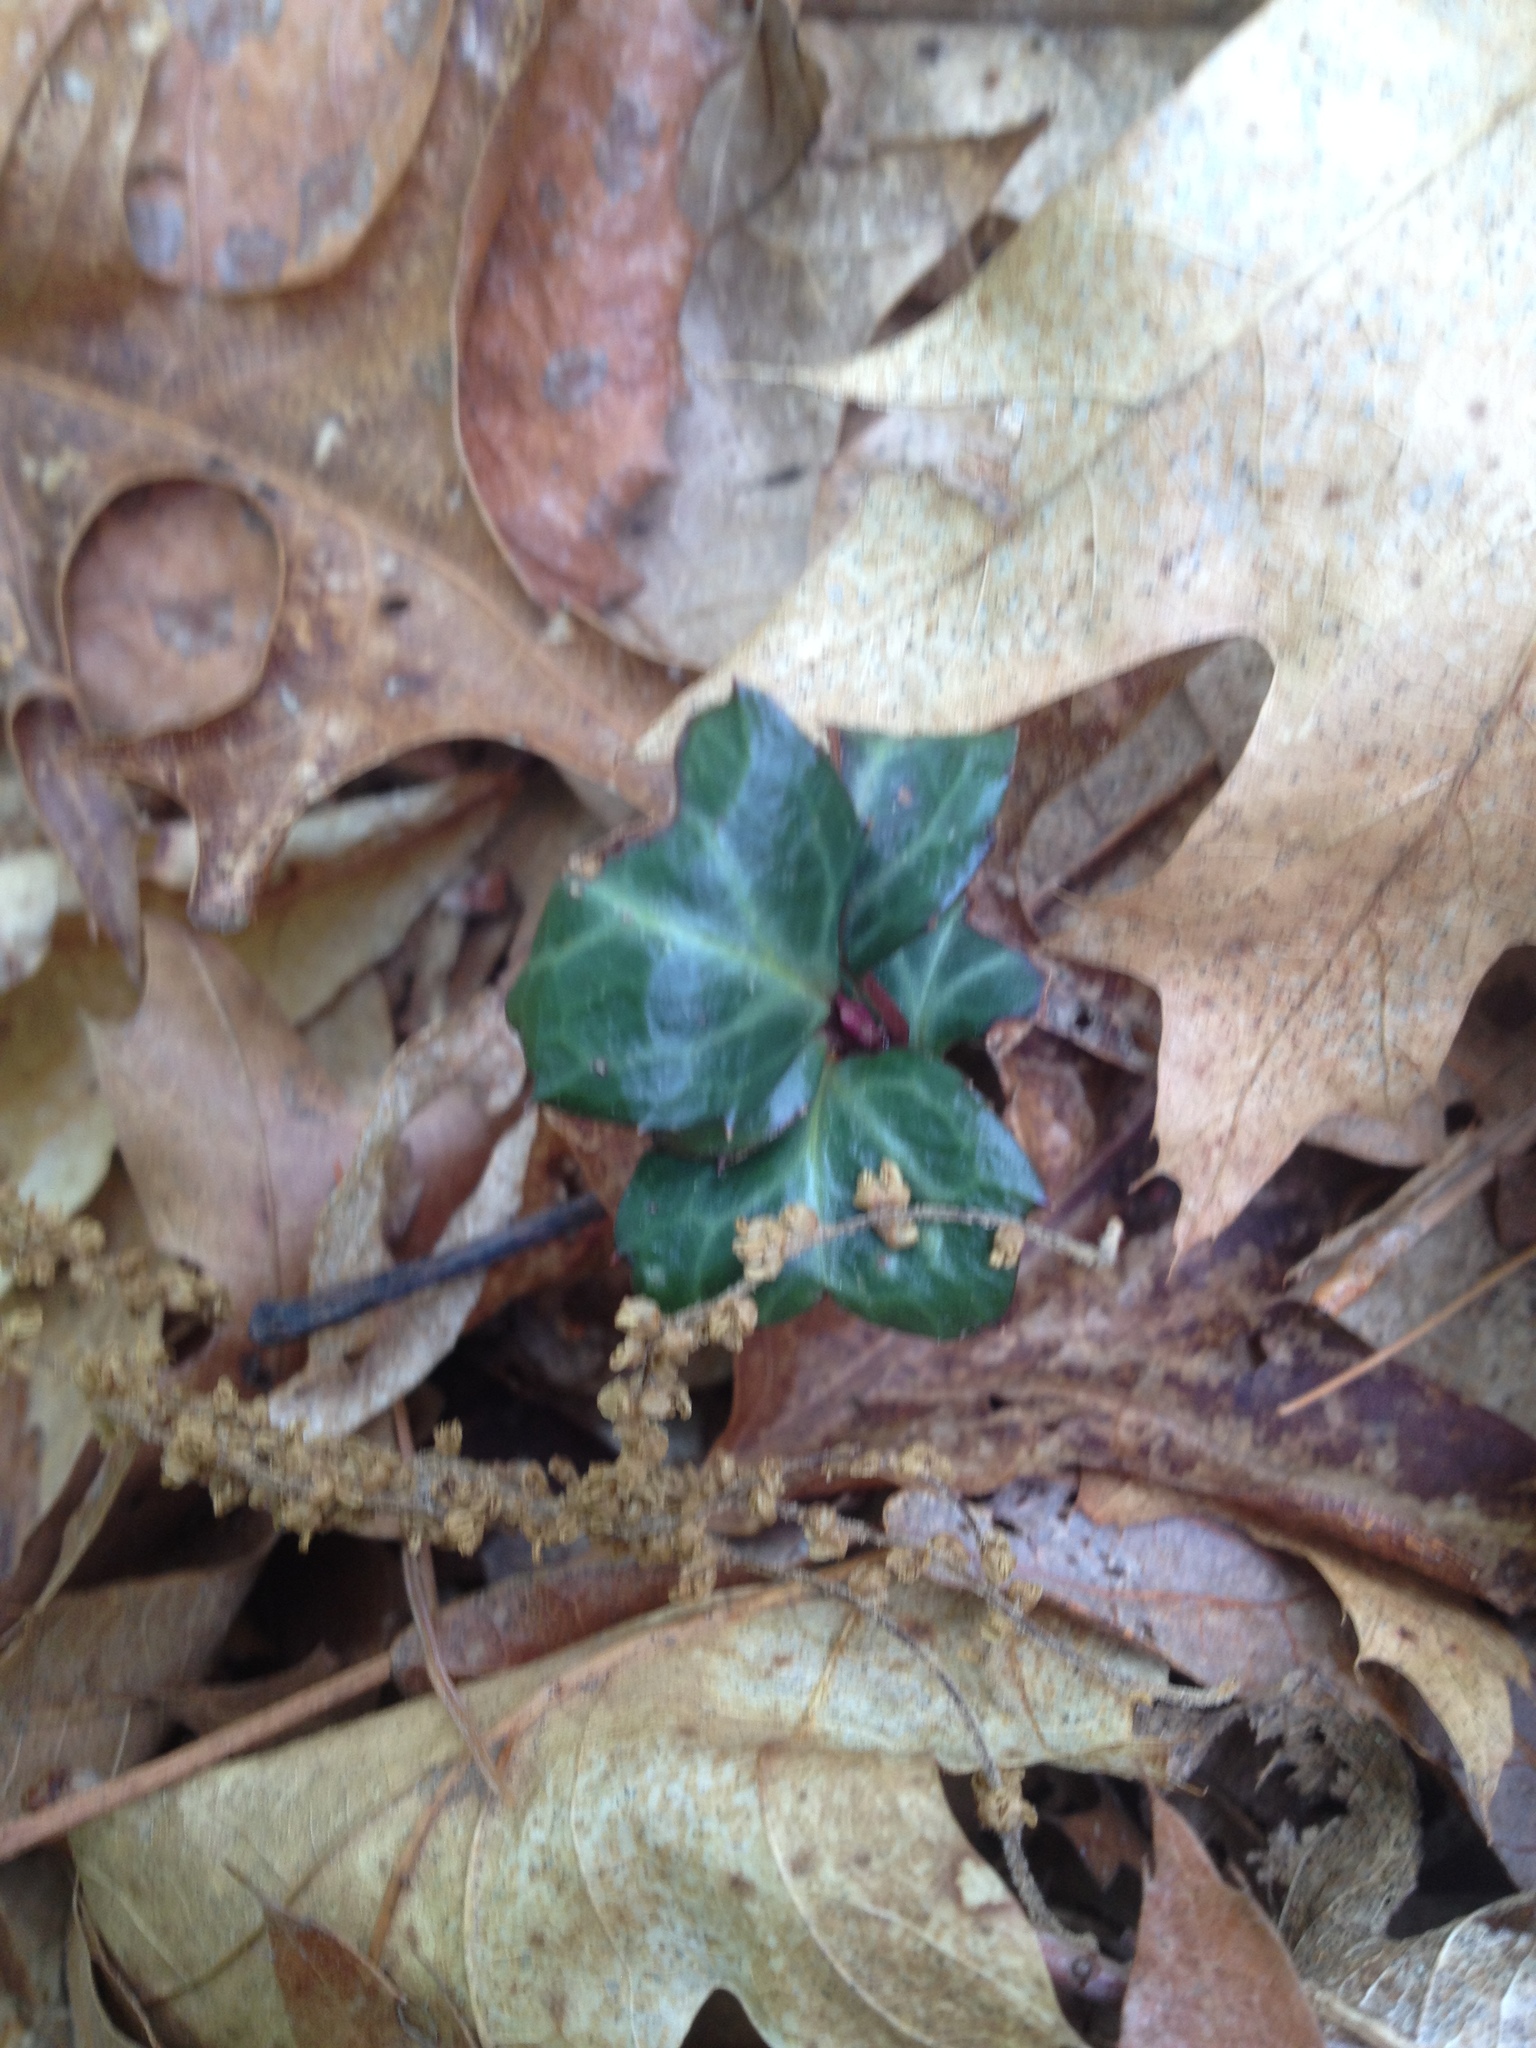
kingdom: Plantae
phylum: Tracheophyta
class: Magnoliopsida
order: Ericales
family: Ericaceae
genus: Chimaphila
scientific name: Chimaphila maculata
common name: Spotted pipsissewa
